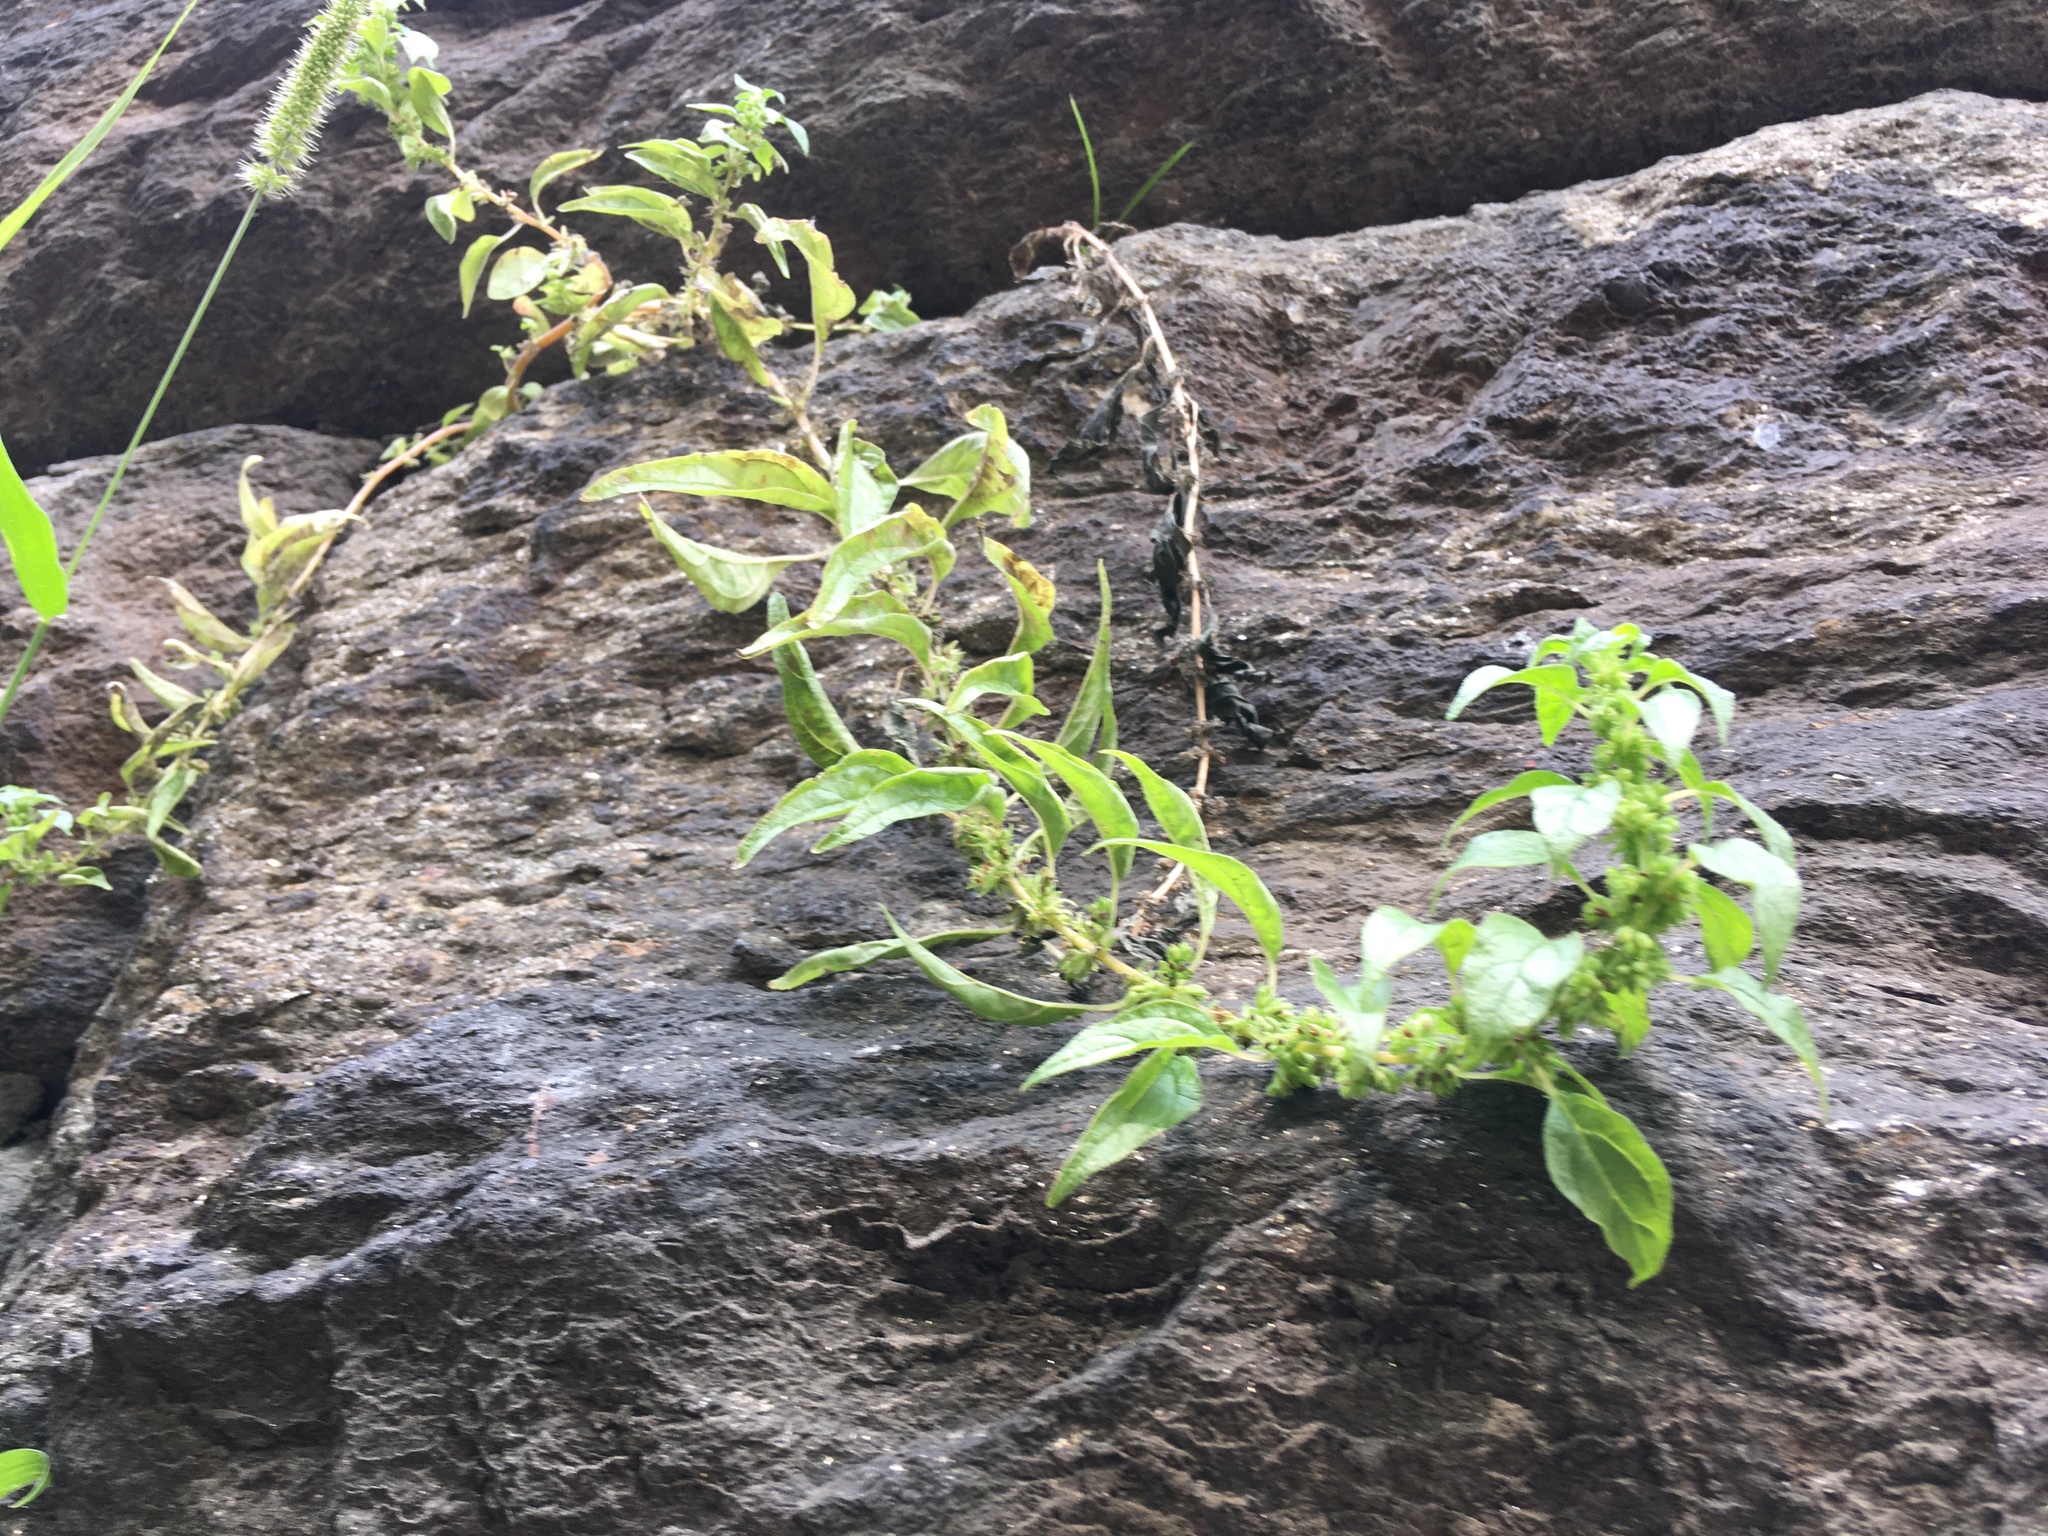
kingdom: Plantae
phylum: Tracheophyta
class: Magnoliopsida
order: Rosales
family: Urticaceae
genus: Parietaria
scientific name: Parietaria pensylvanica
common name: Pennsylvania pellitory
